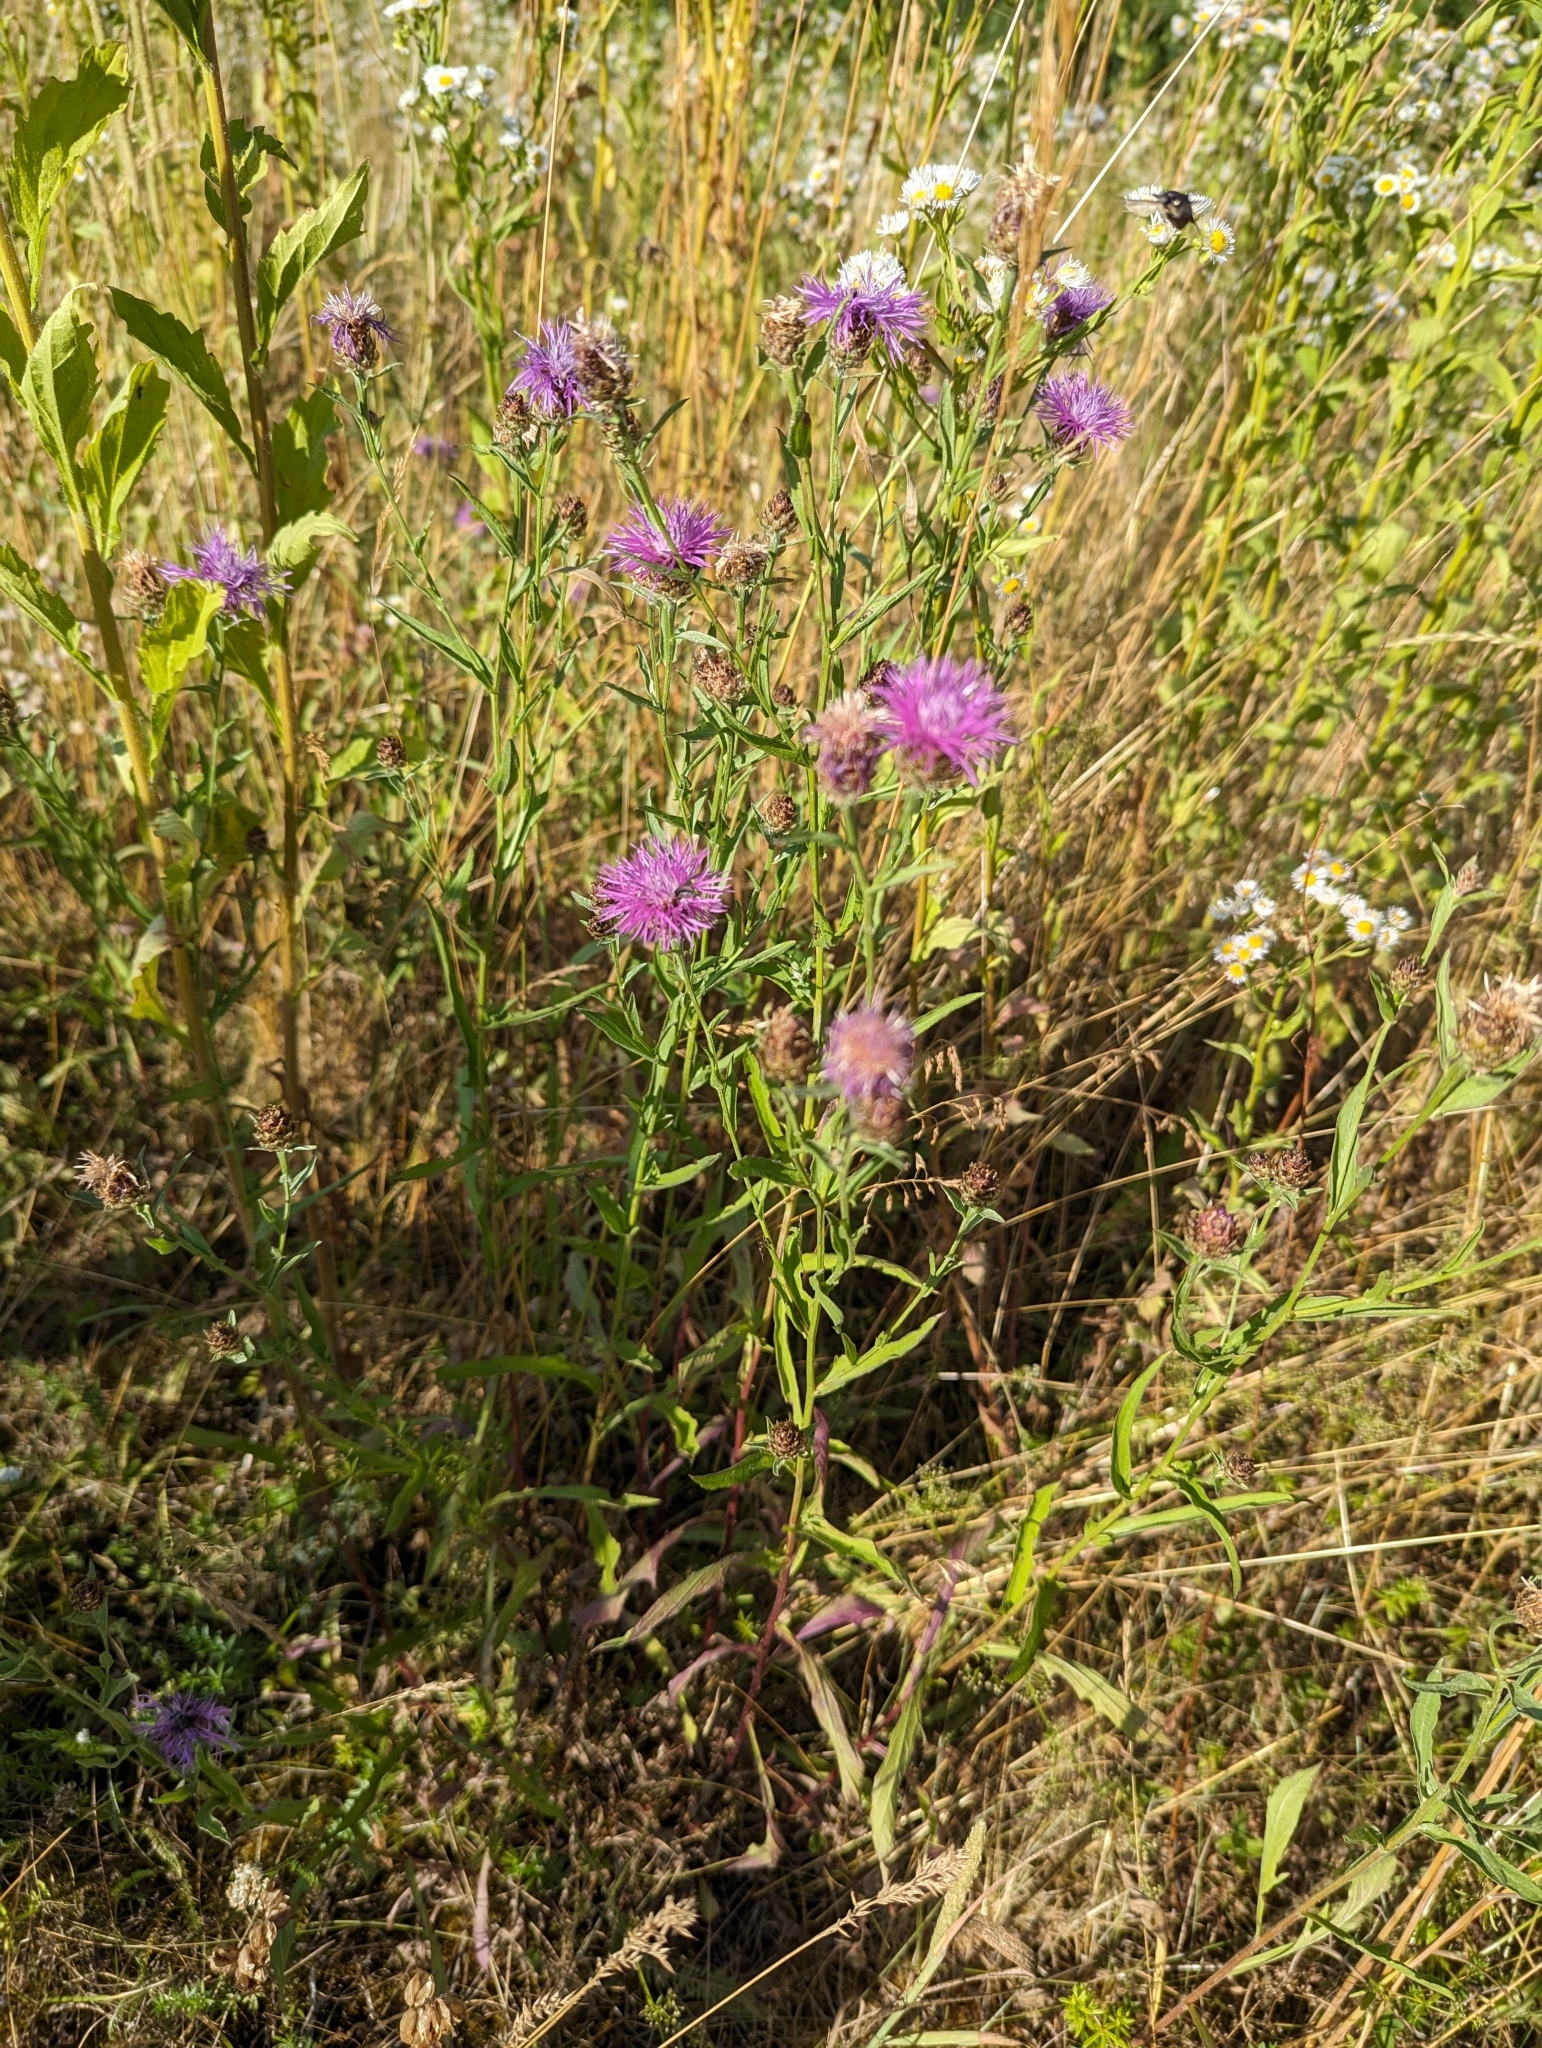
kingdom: Plantae
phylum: Tracheophyta
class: Magnoliopsida
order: Asterales
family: Asteraceae
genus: Centaurea
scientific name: Centaurea jacea
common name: Brown knapweed
